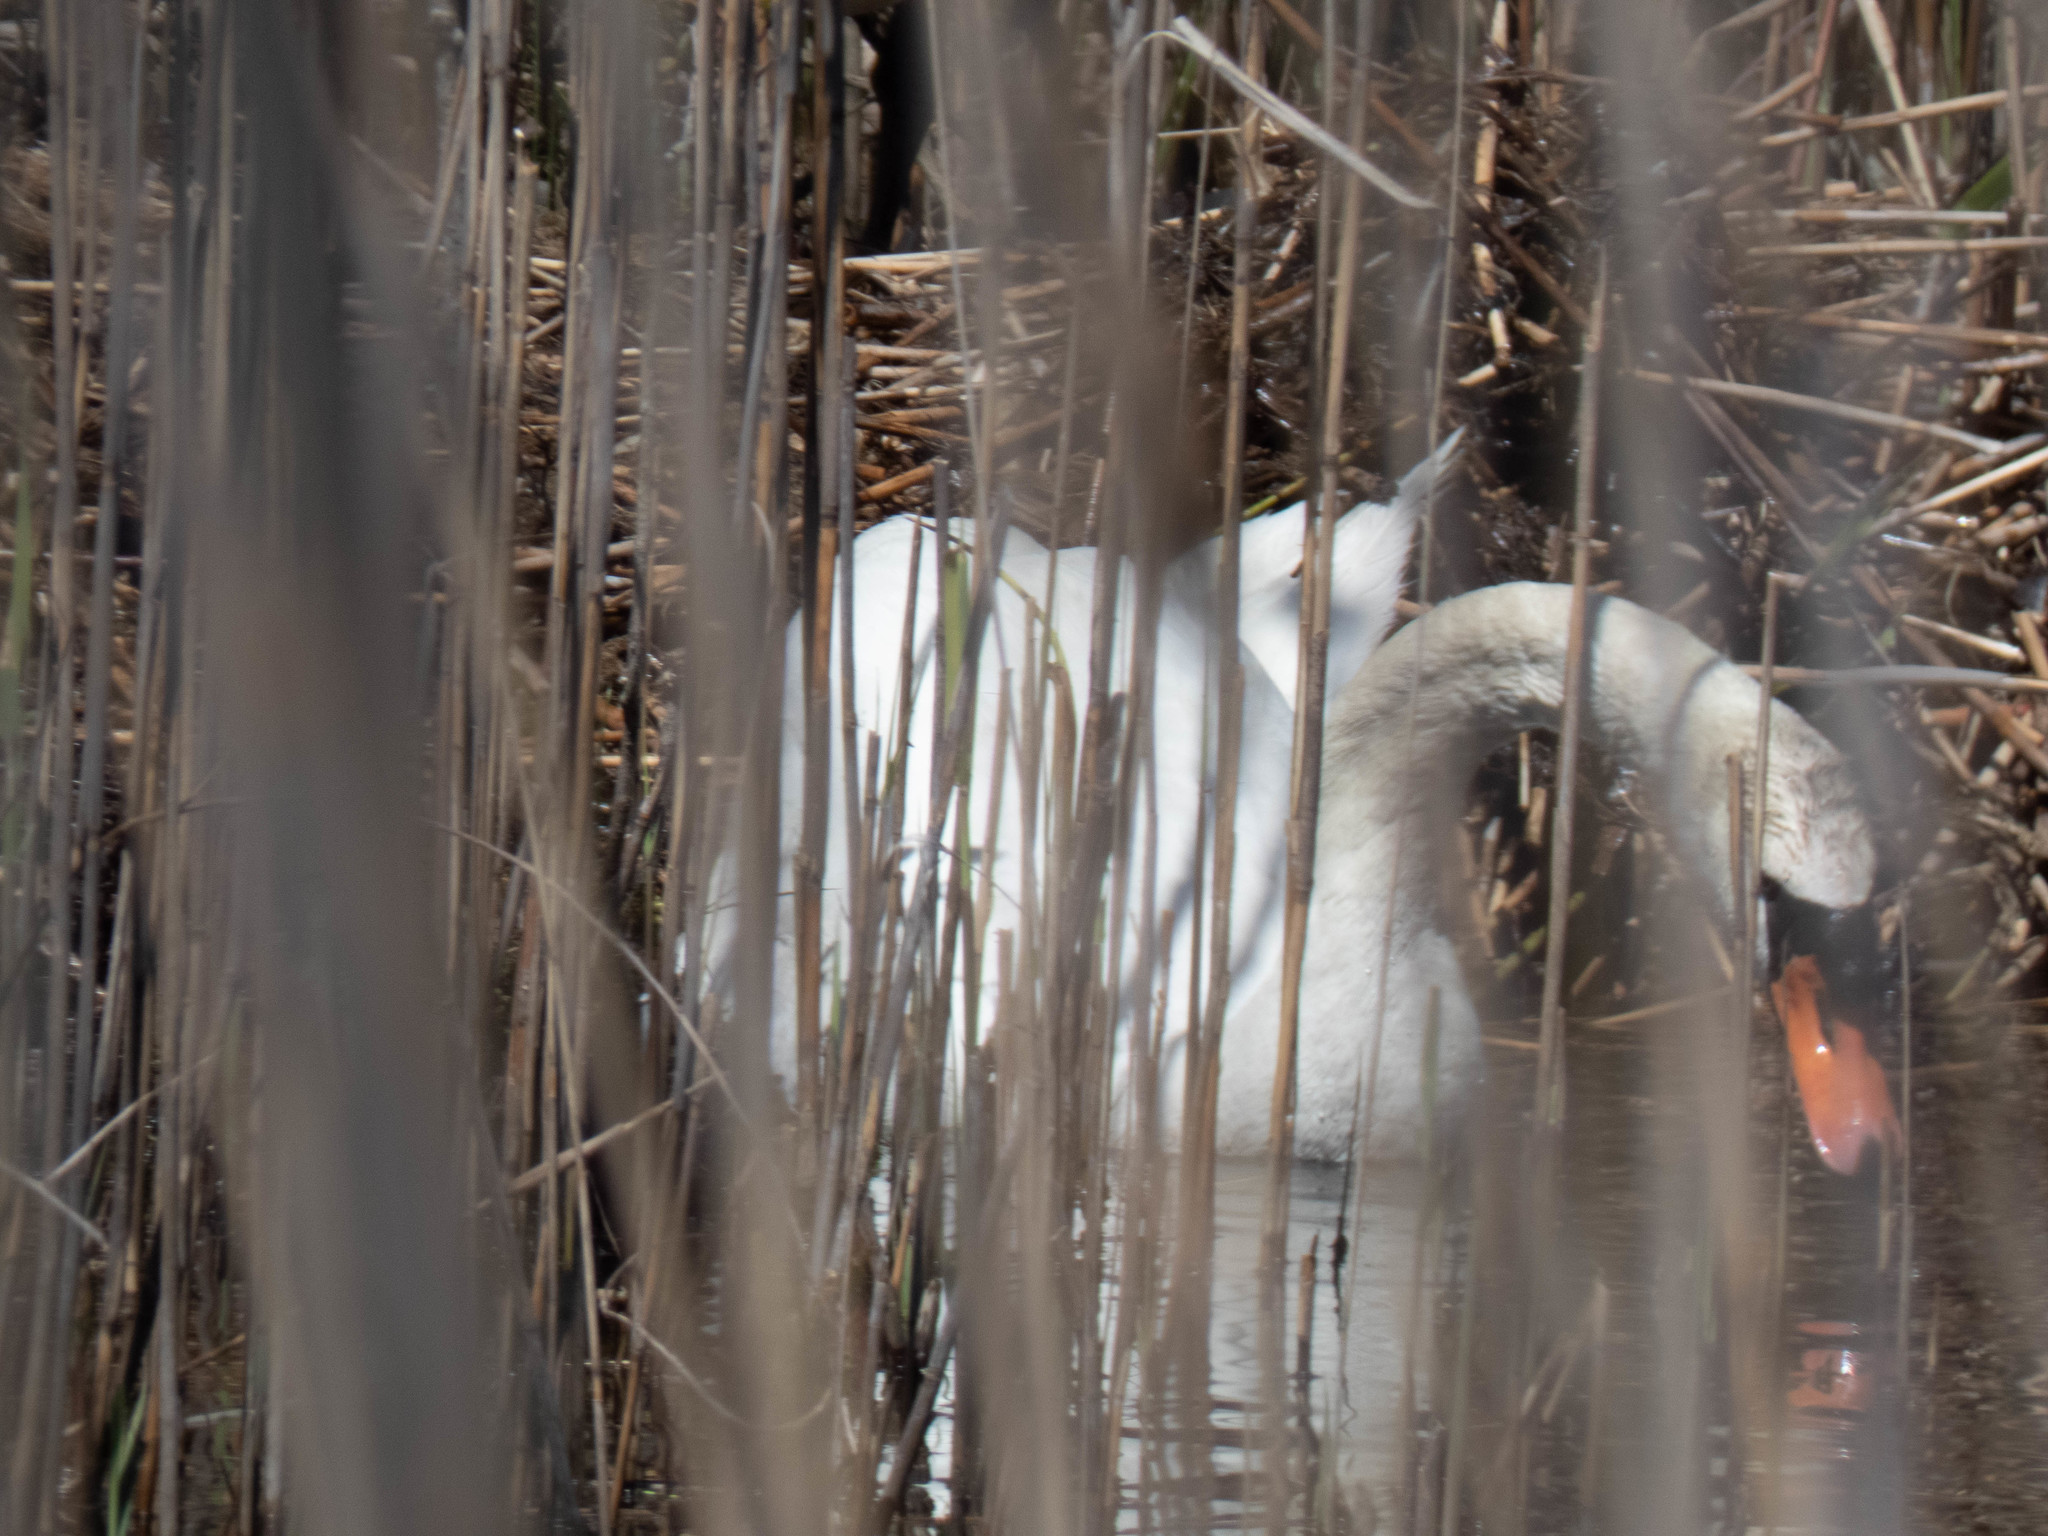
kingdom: Animalia
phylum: Chordata
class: Aves
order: Anseriformes
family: Anatidae
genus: Cygnus
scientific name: Cygnus olor
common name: Mute swan
